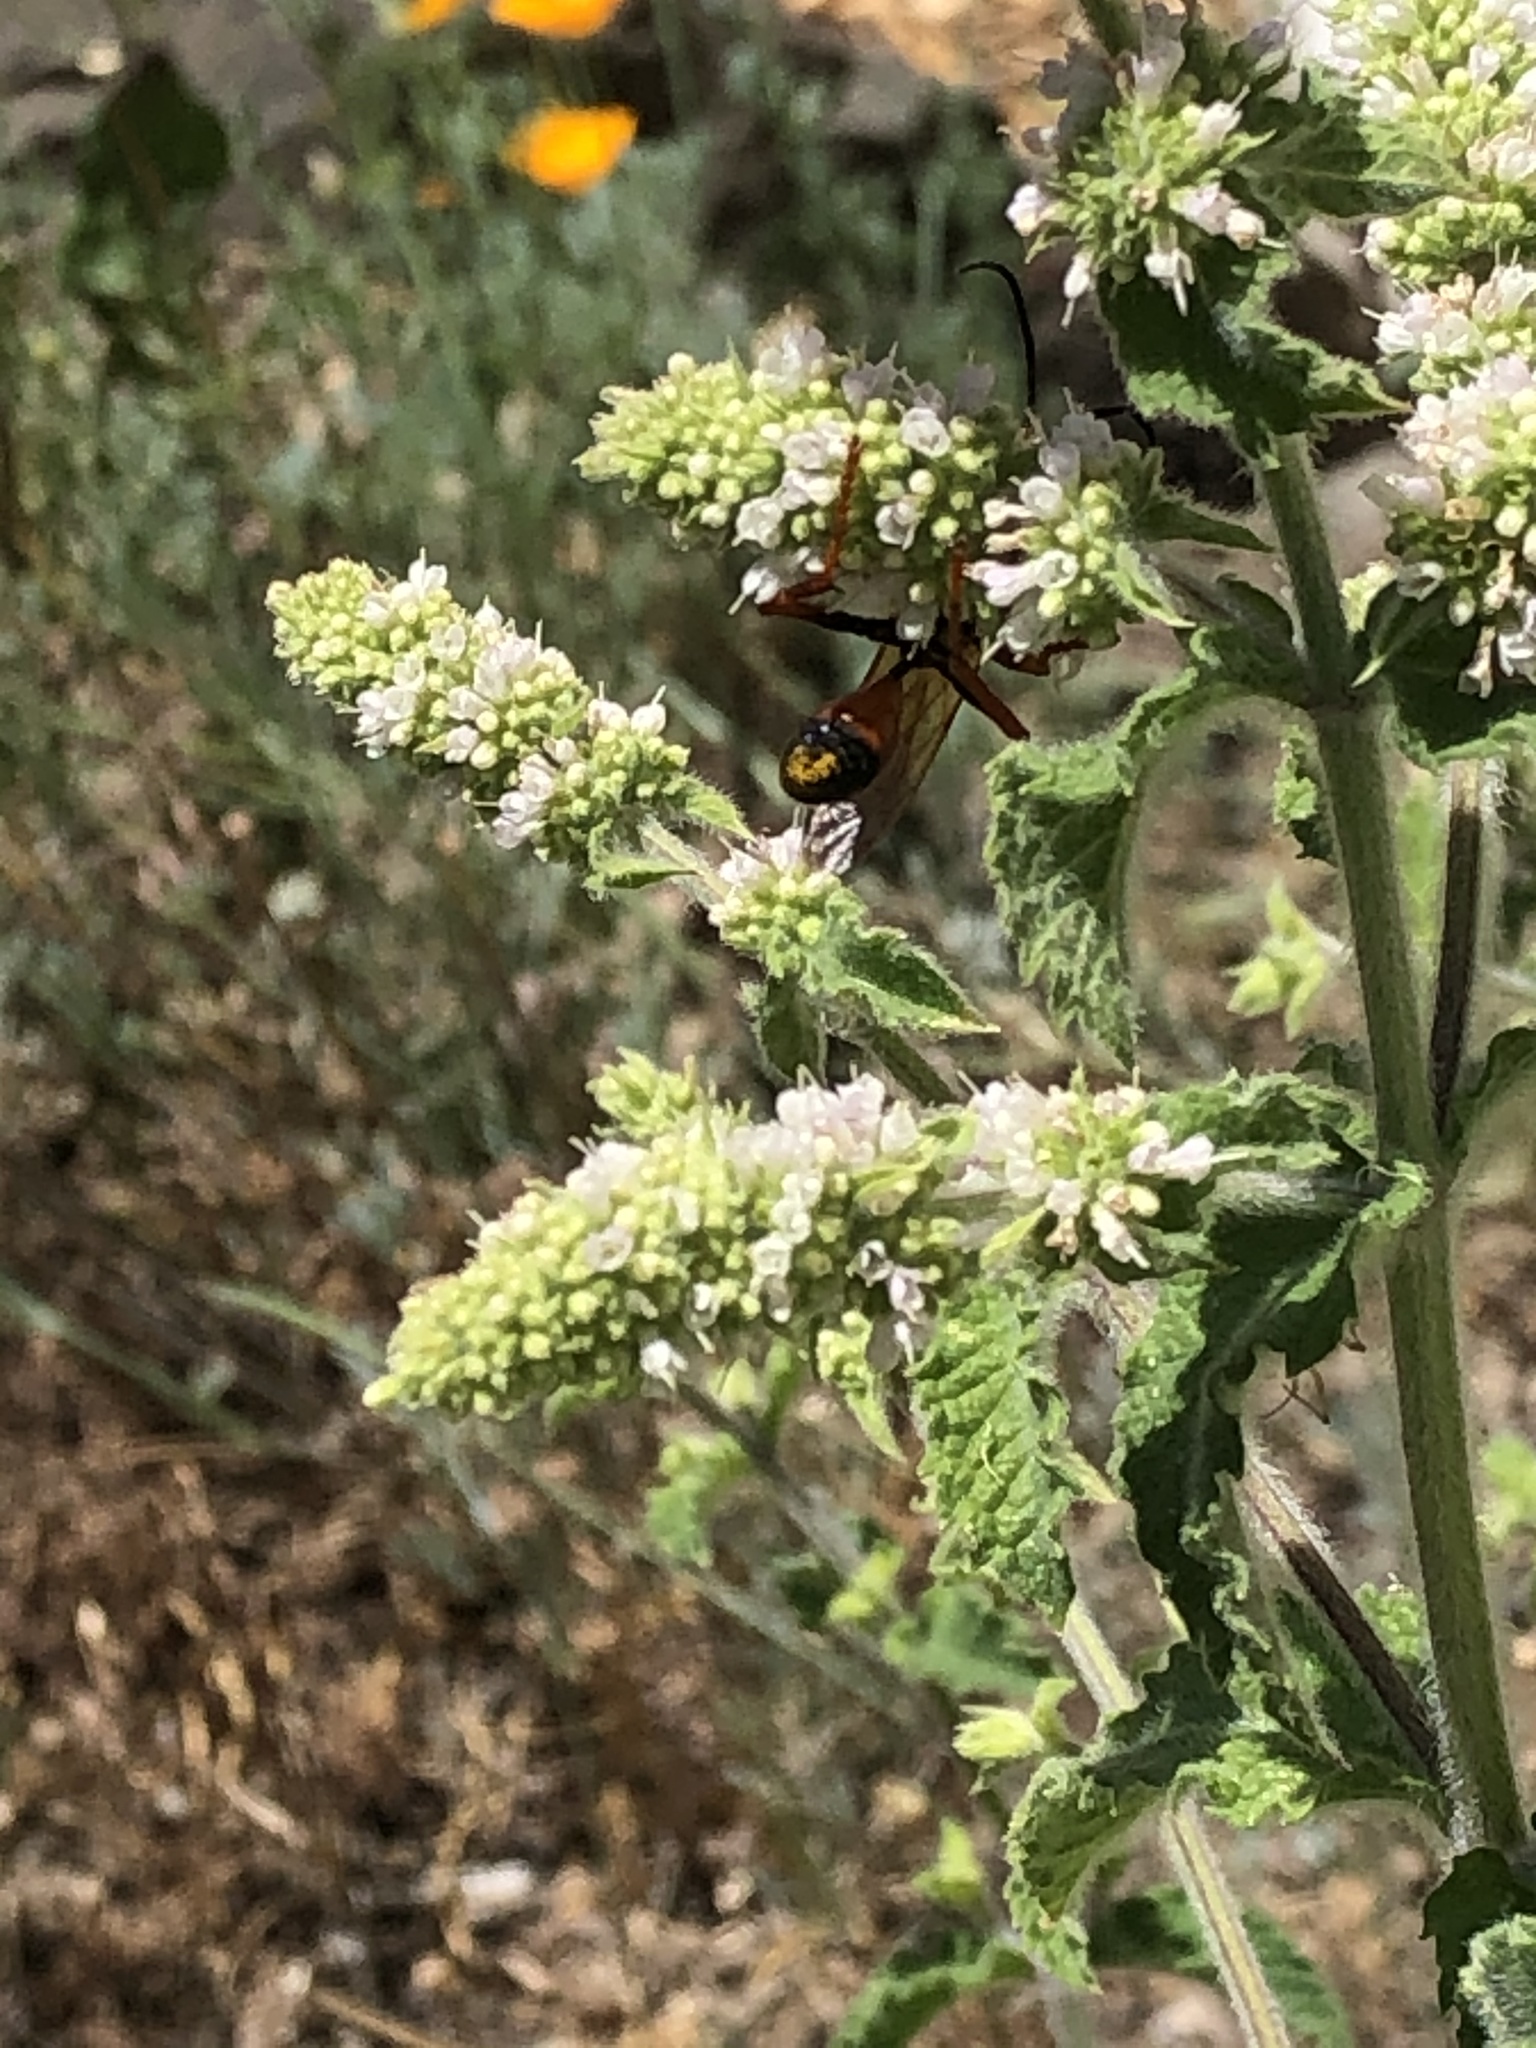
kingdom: Animalia
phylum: Arthropoda
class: Insecta
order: Hymenoptera
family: Sphecidae
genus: Sphex
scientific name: Sphex ichneumoneus
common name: Great golden digger wasp
